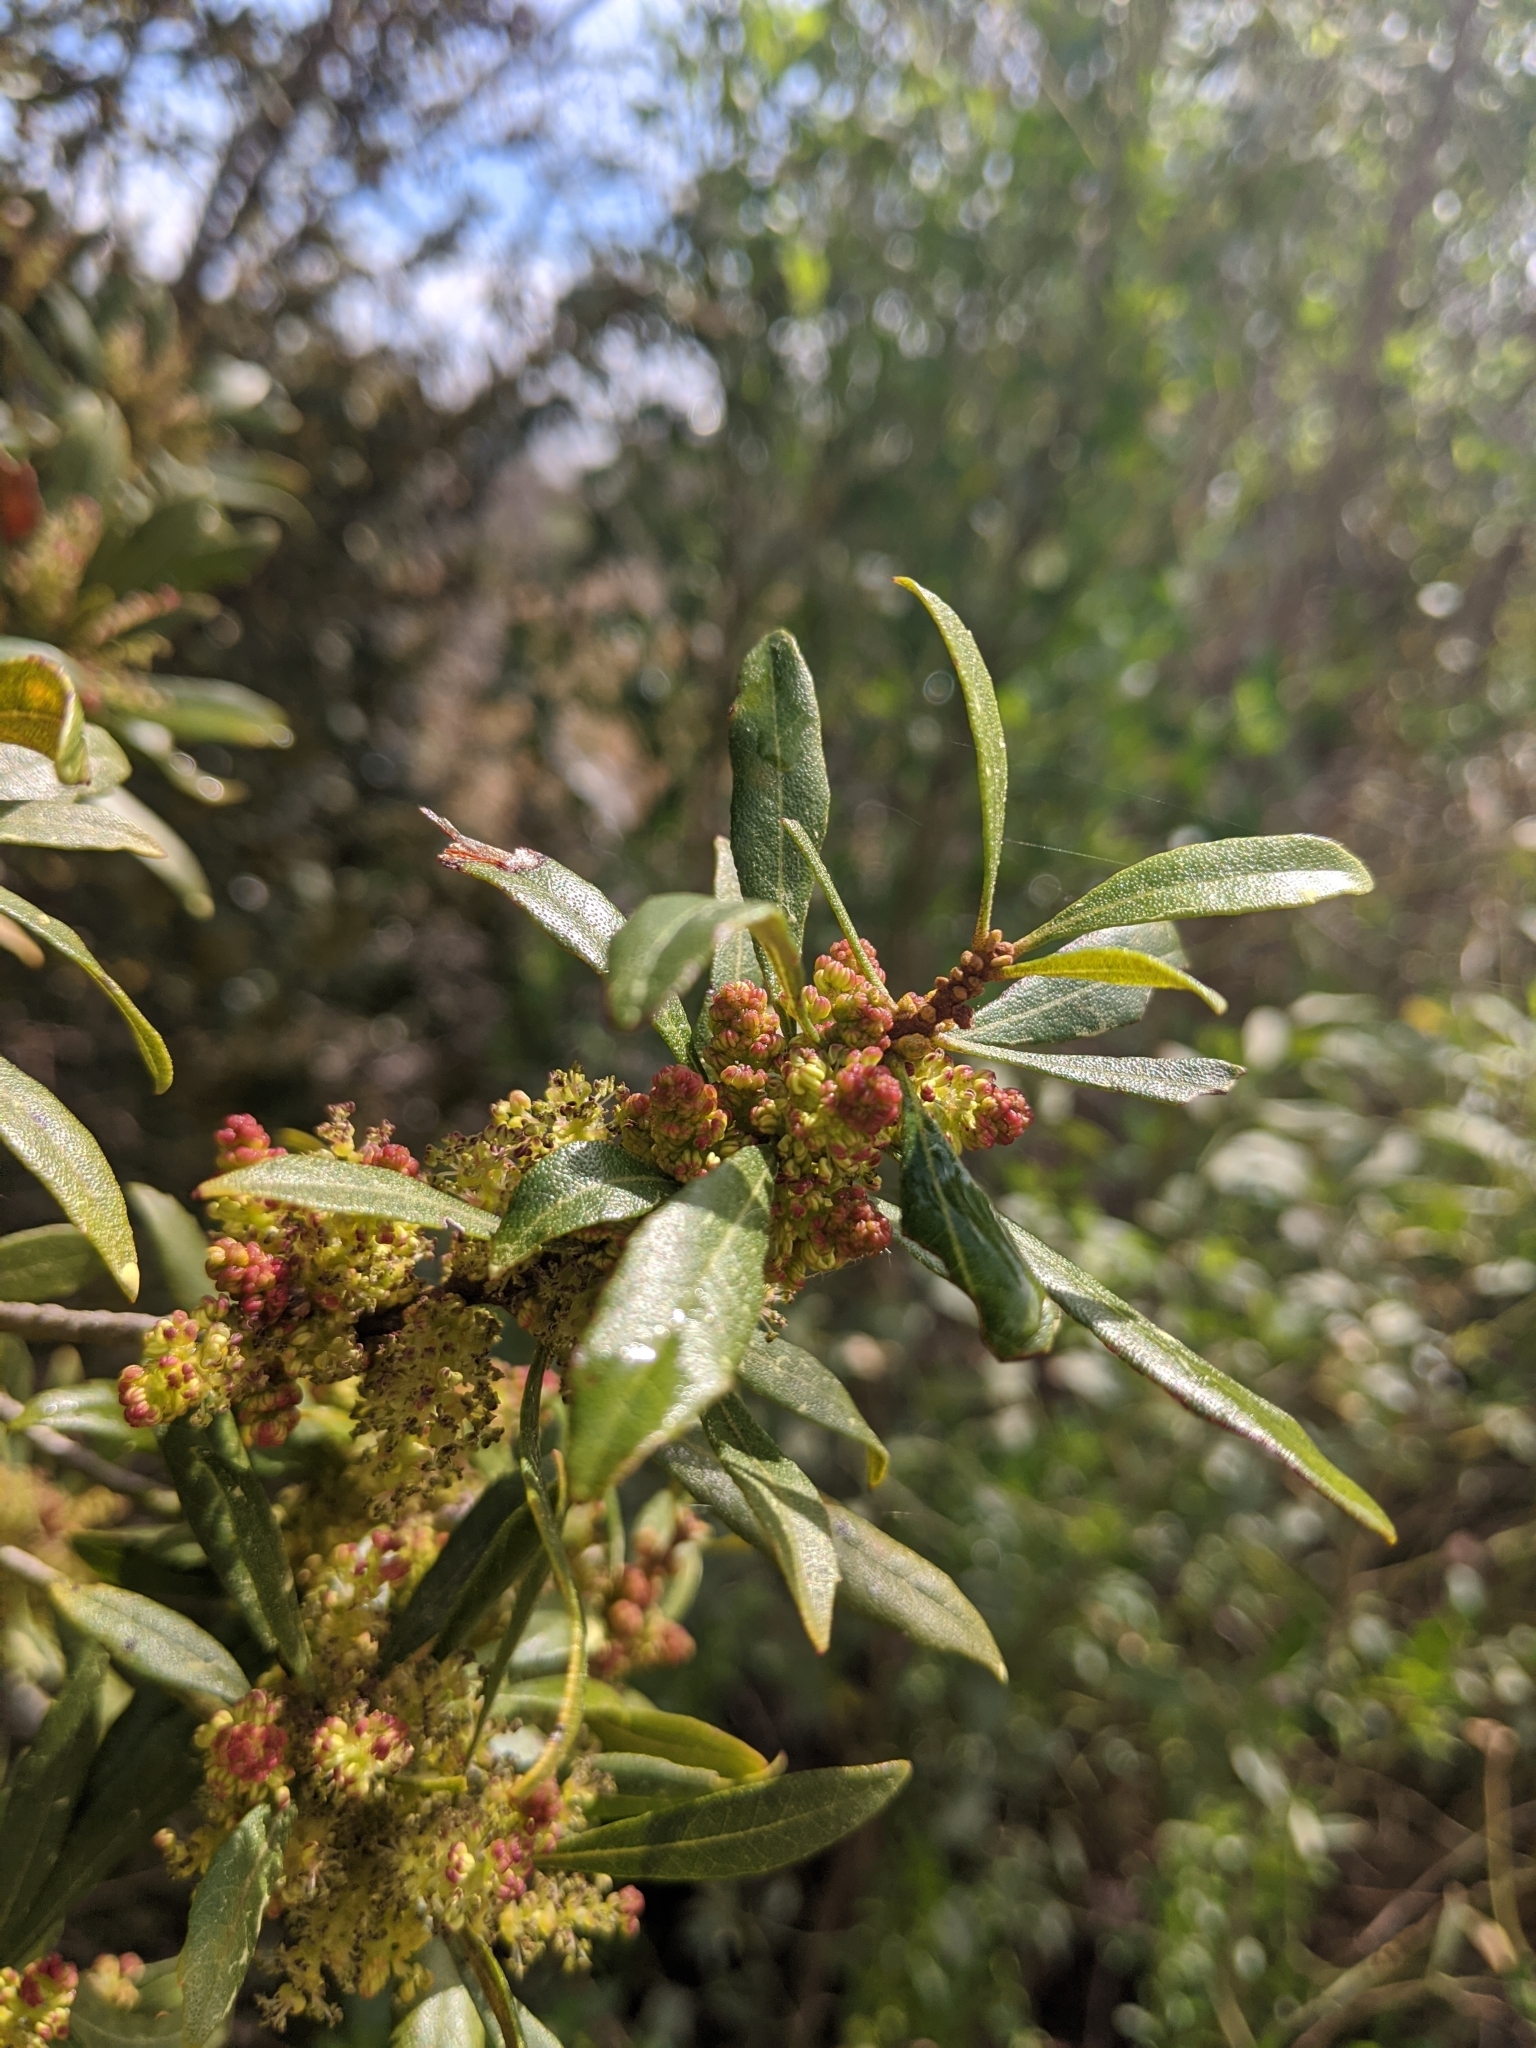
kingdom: Plantae
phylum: Tracheophyta
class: Magnoliopsida
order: Fagales
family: Myricaceae
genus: Morella
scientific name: Morella cerifera
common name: Wax myrtle
